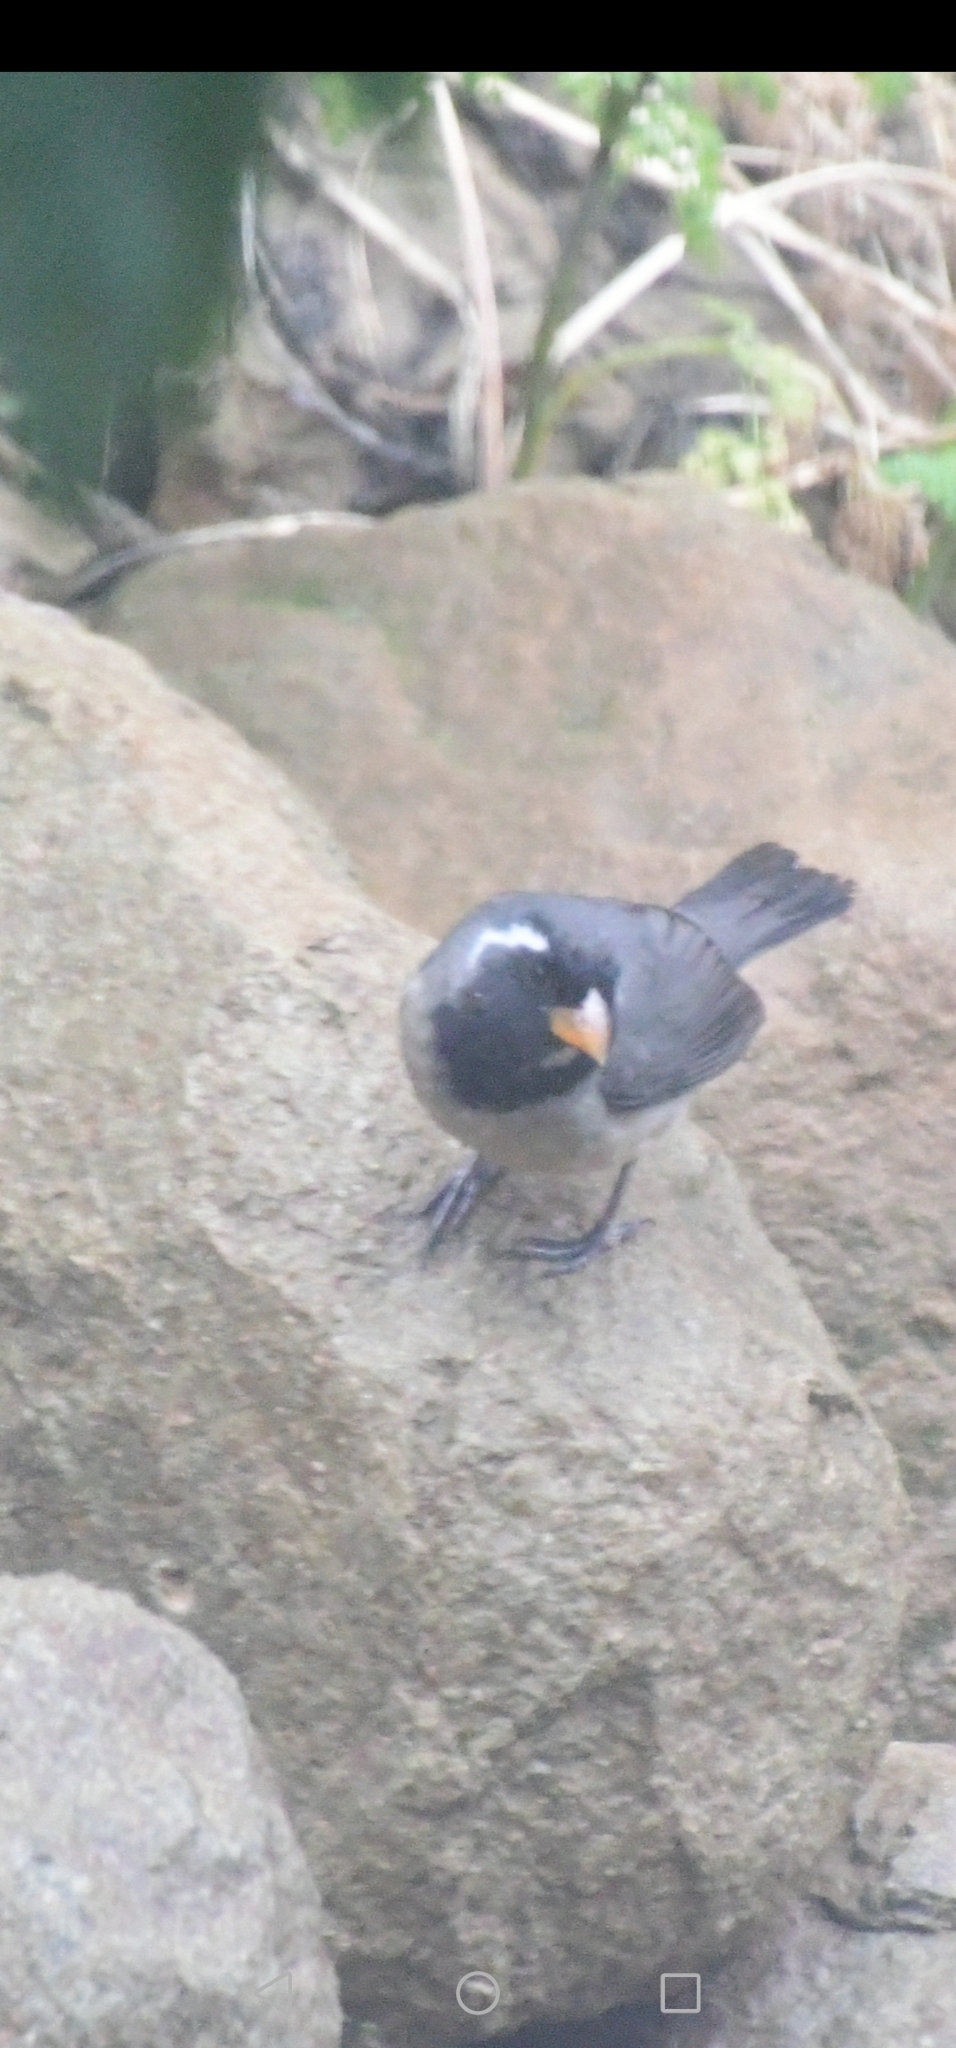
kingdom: Animalia
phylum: Chordata
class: Aves
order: Passeriformes
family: Thraupidae
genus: Saltator
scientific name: Saltator aurantiirostris
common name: Golden-billed saltator
